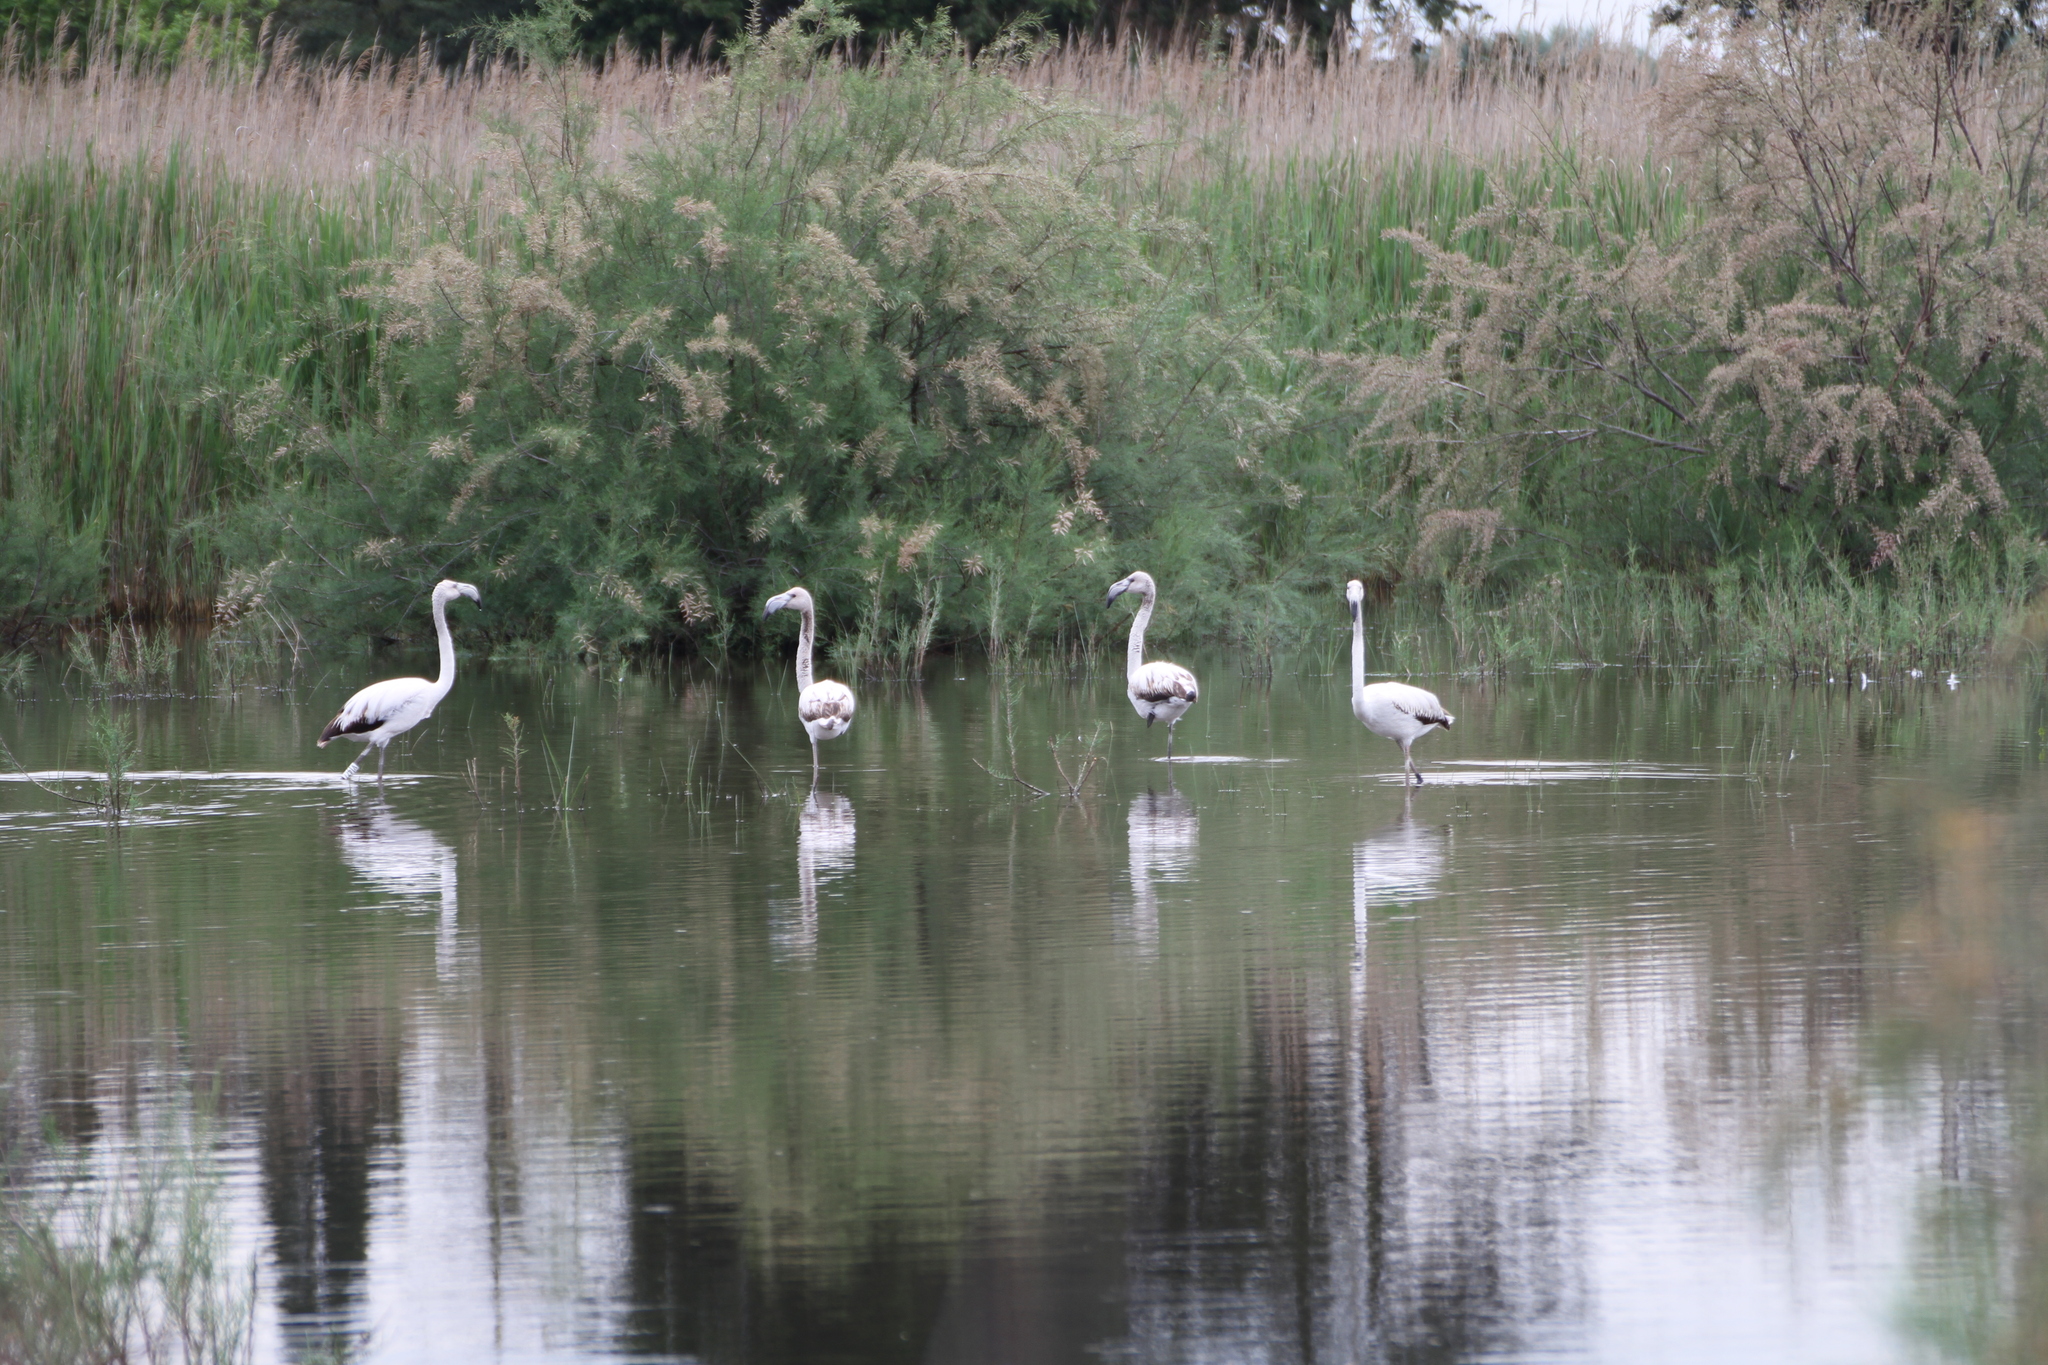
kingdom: Animalia
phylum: Chordata
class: Aves
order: Phoenicopteriformes
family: Phoenicopteridae
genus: Phoenicopterus
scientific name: Phoenicopterus roseus
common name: Greater flamingo
